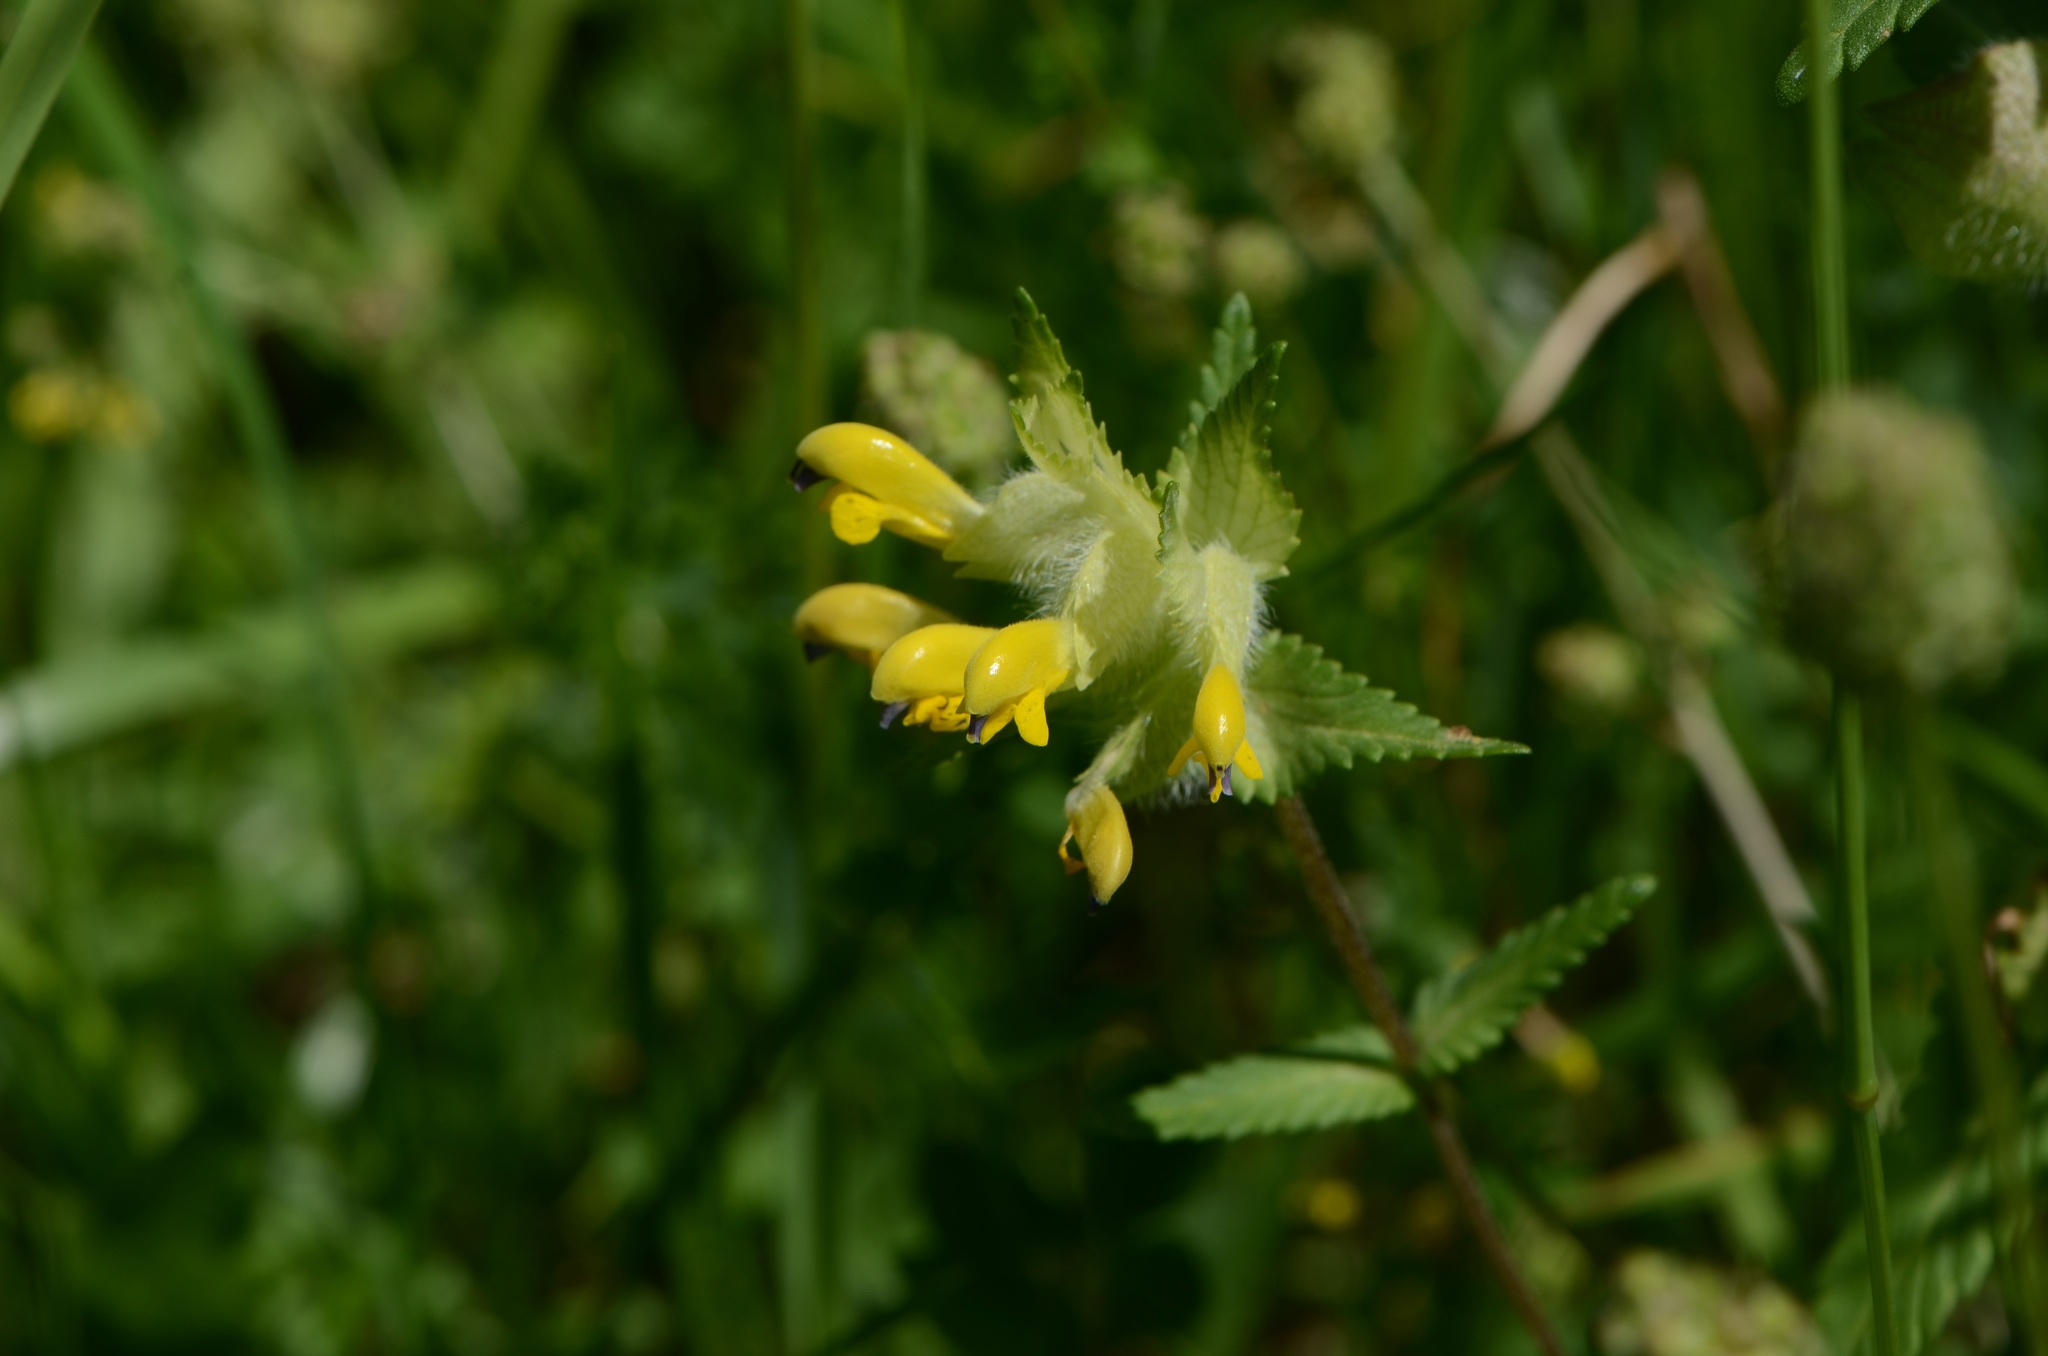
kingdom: Plantae
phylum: Tracheophyta
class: Magnoliopsida
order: Lamiales
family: Orobanchaceae
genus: Rhinanthus
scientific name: Rhinanthus alectorolophus
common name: Greater yellow-rattle
